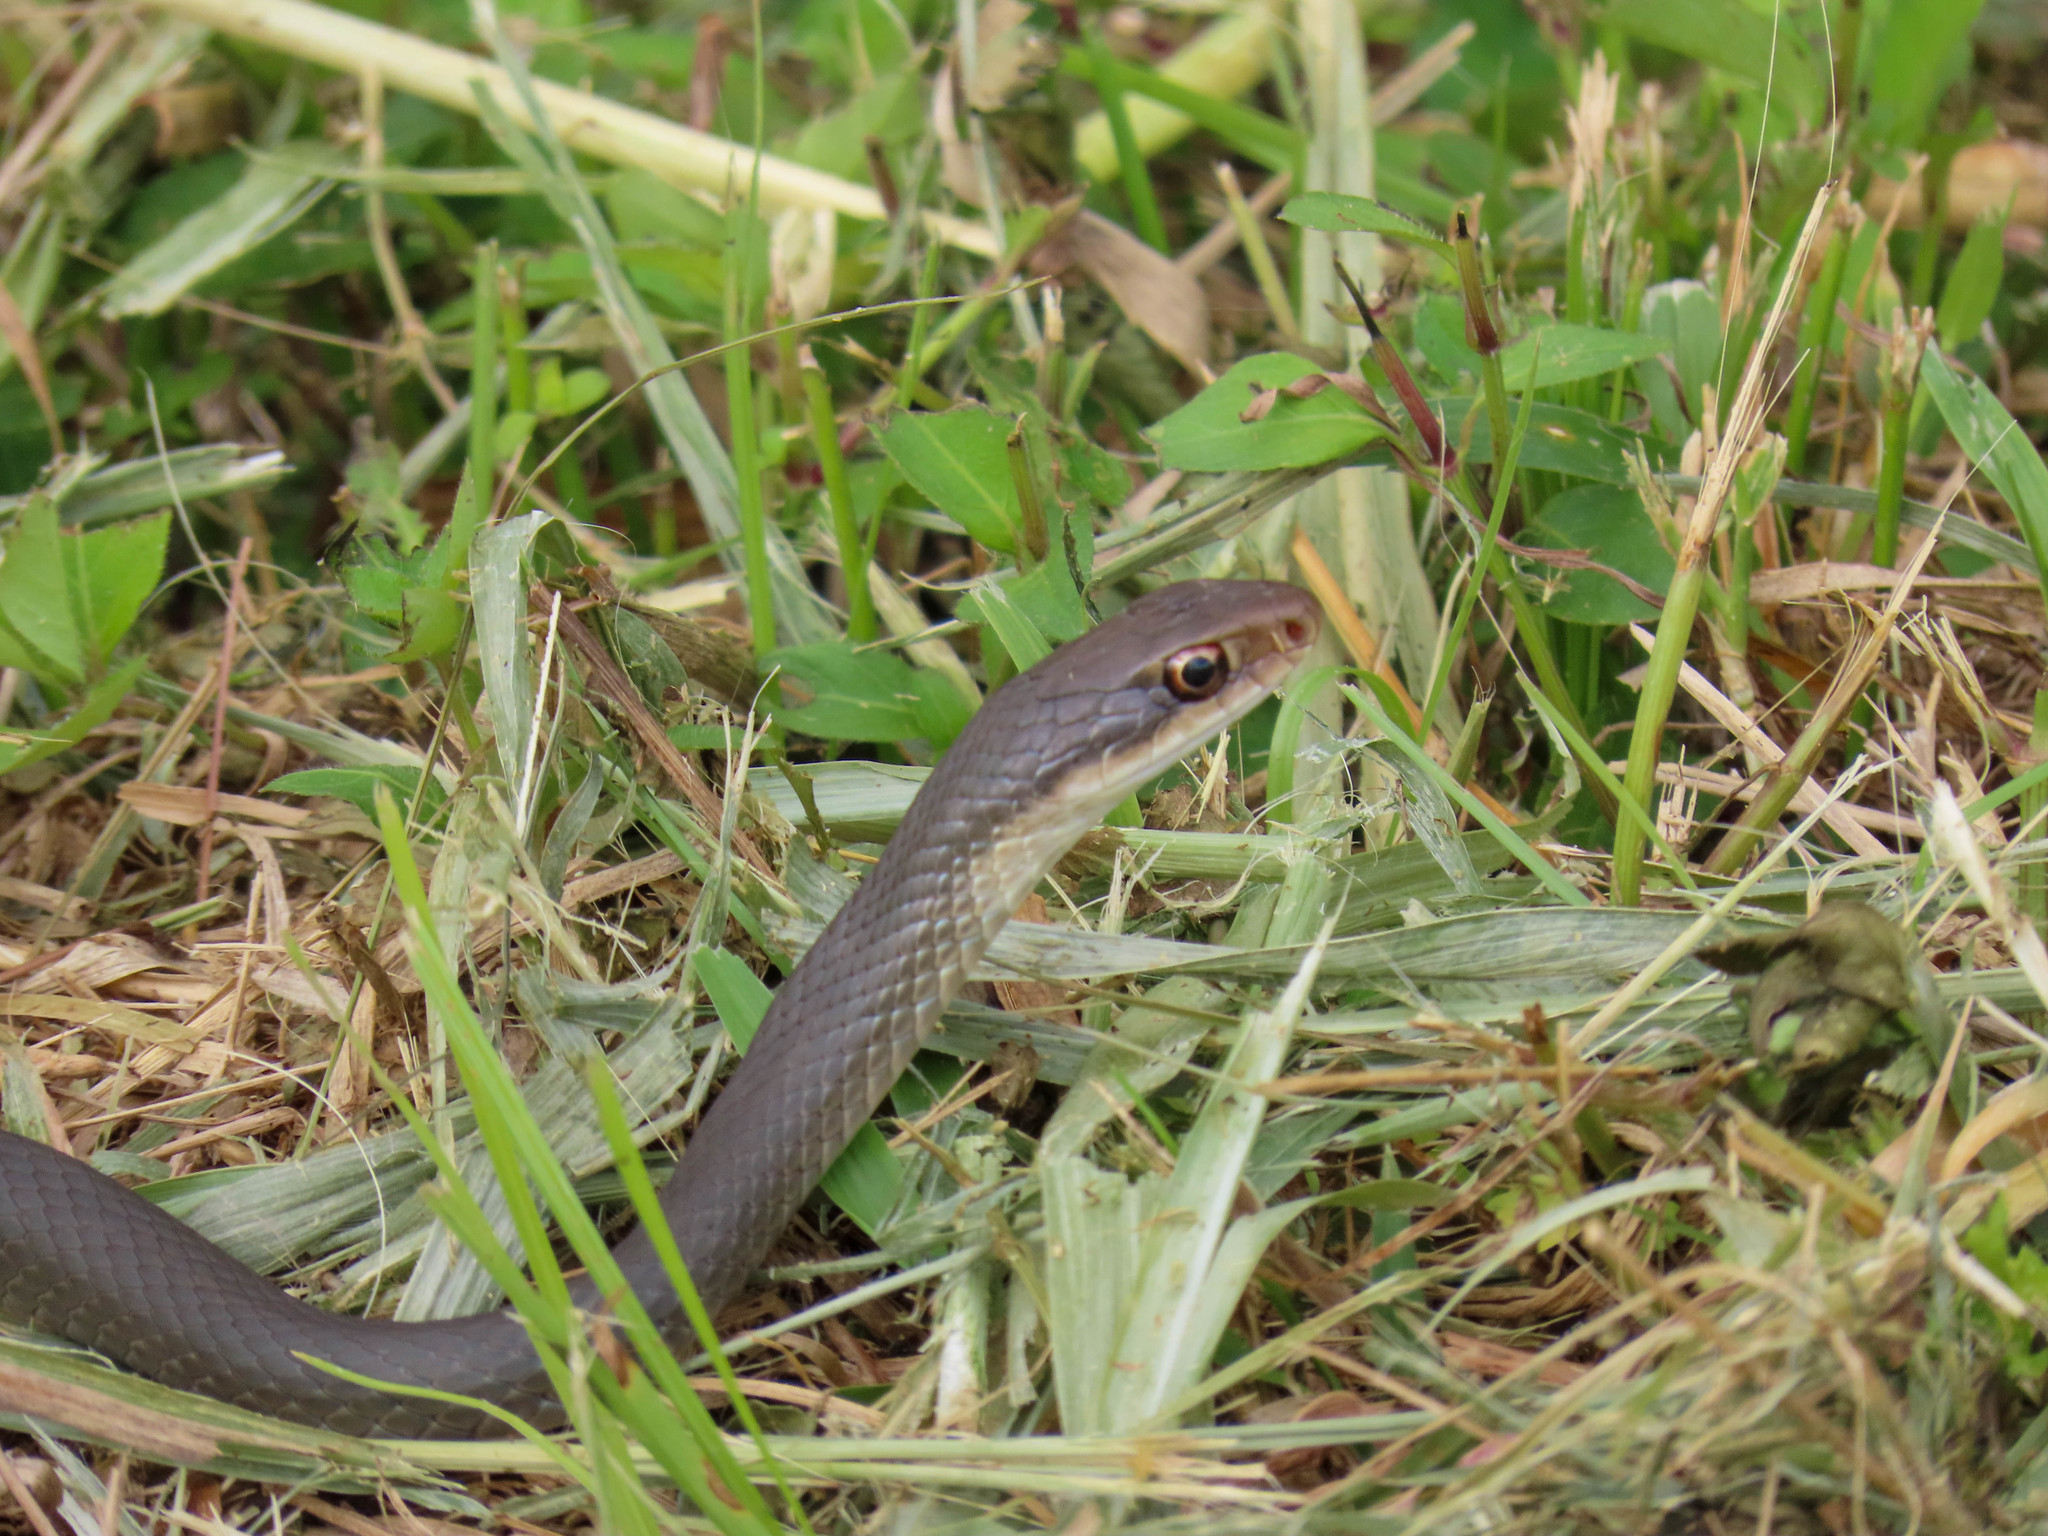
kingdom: Animalia
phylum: Chordata
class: Squamata
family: Colubridae
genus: Coluber
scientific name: Coluber constrictor
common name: Eastern racer
